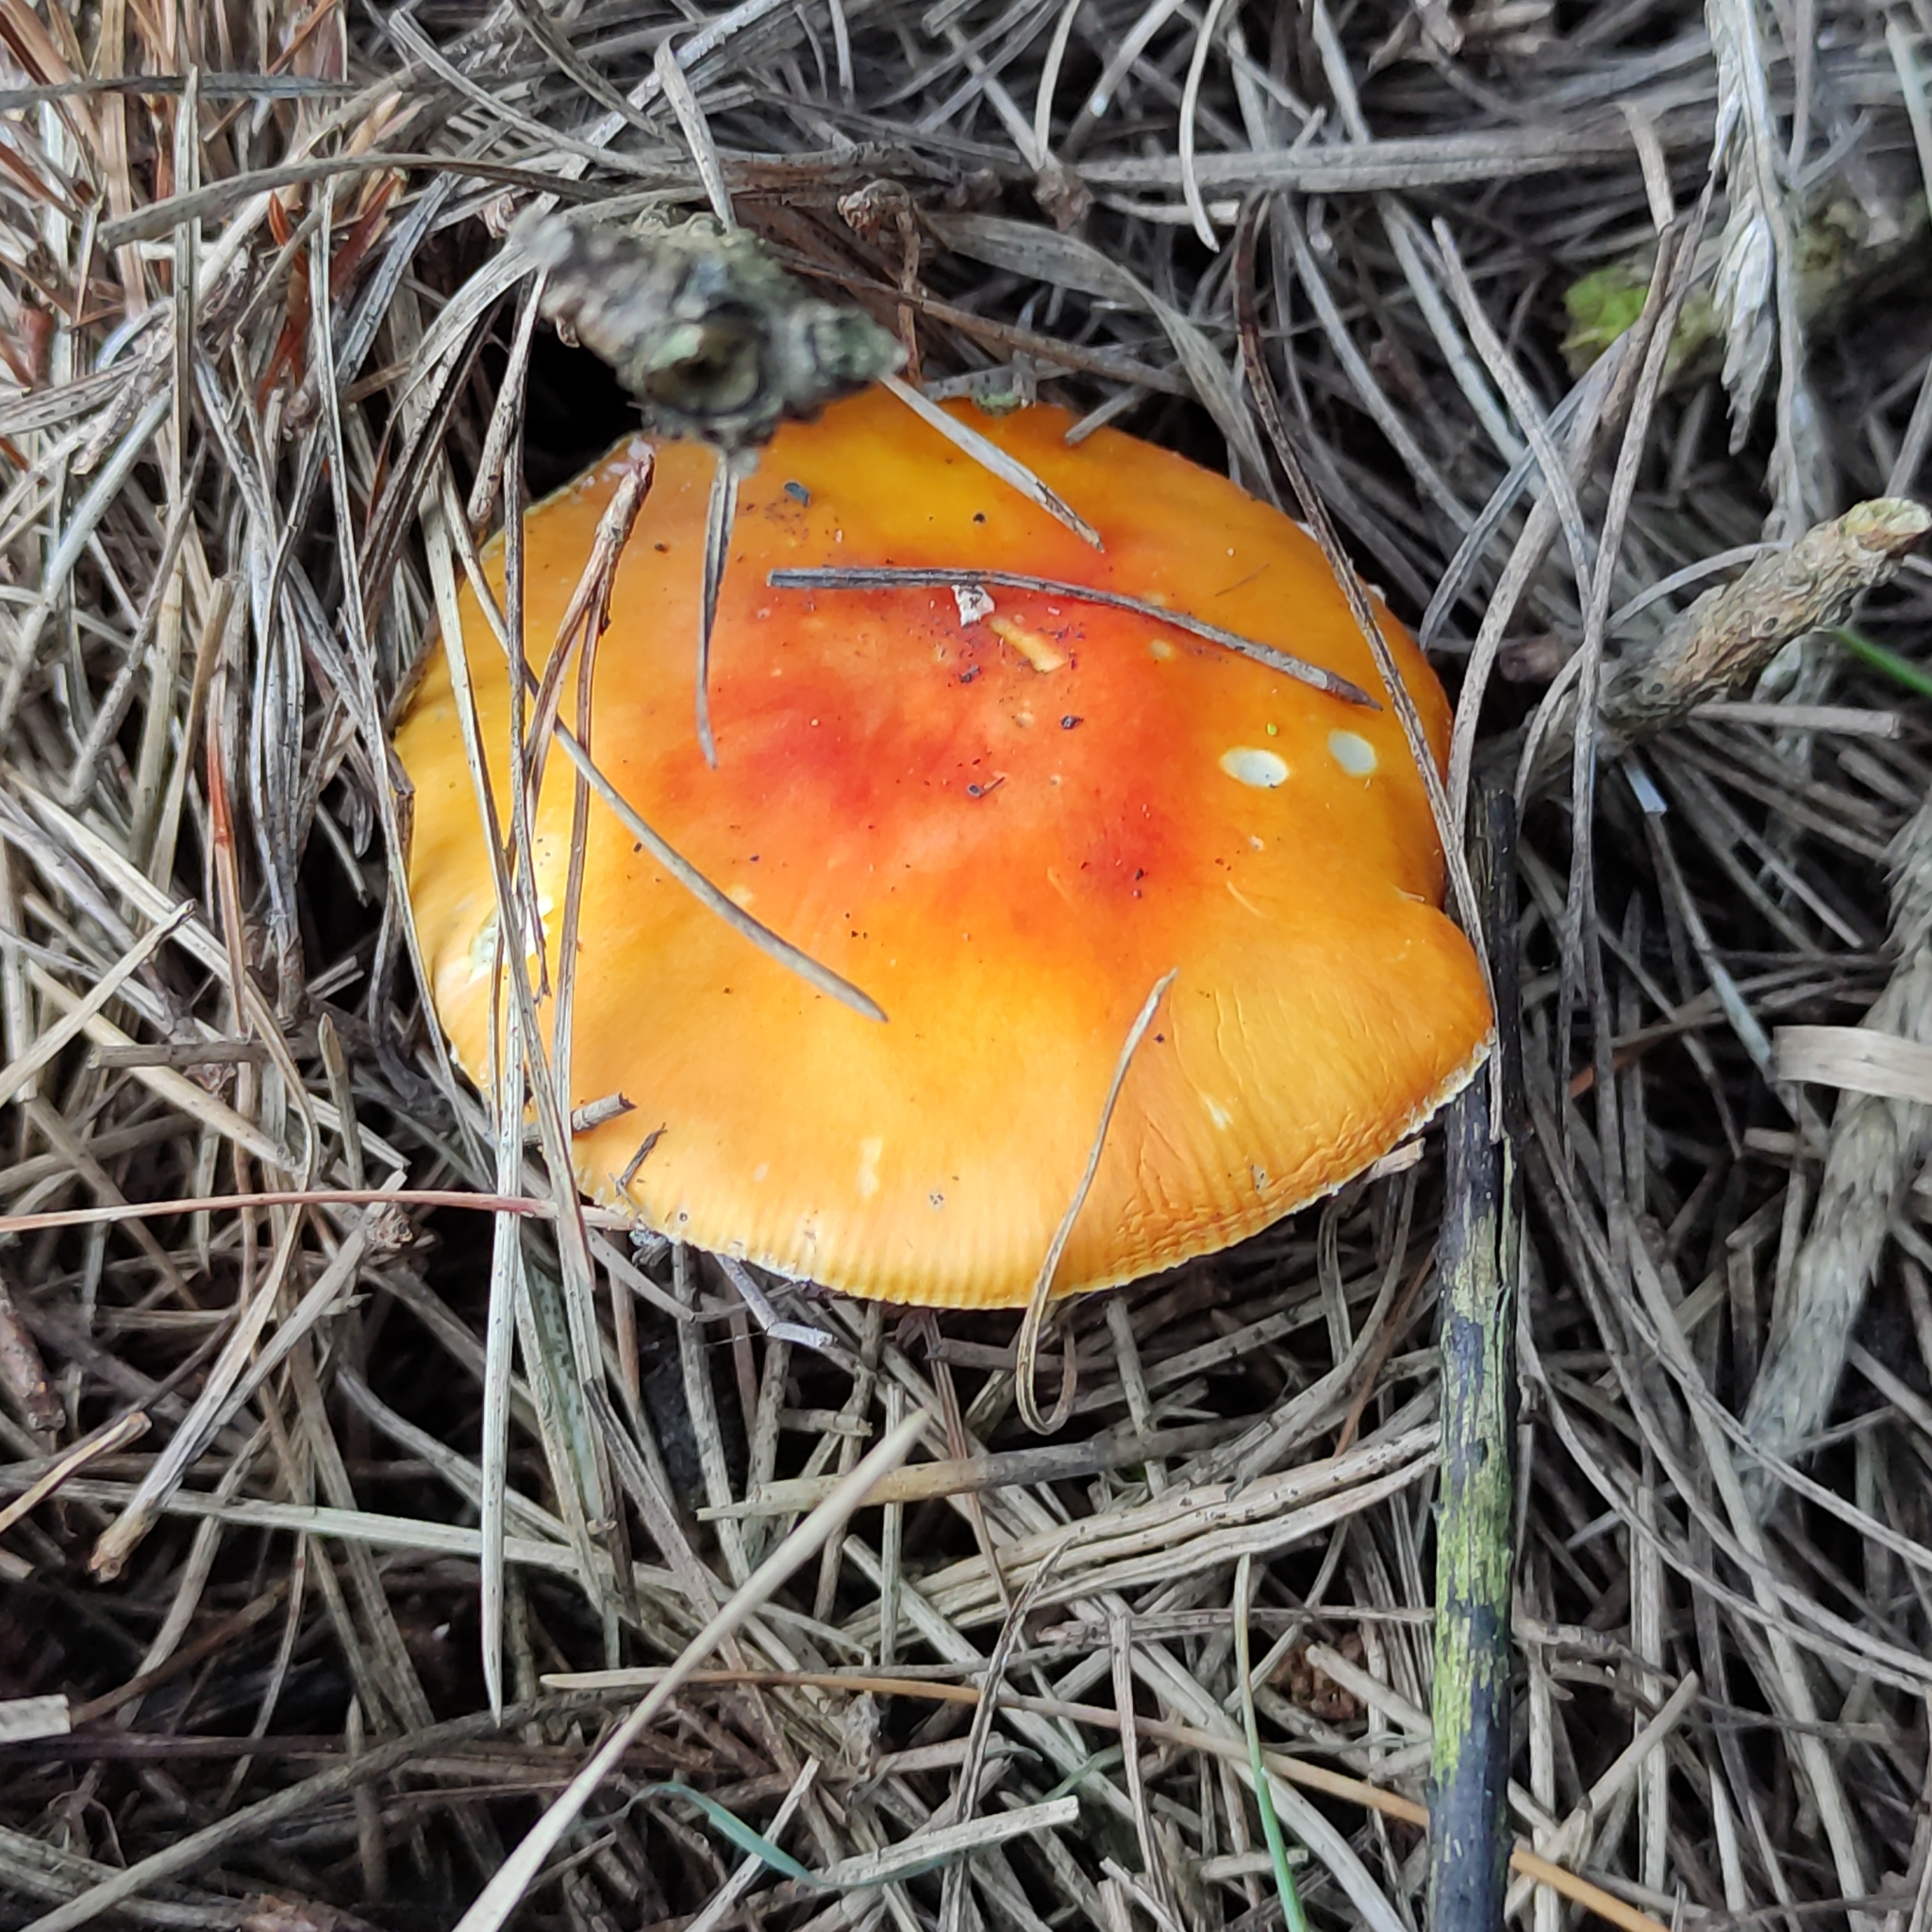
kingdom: Fungi
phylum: Basidiomycota
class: Agaricomycetes
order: Agaricales
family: Amanitaceae
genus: Amanita
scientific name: Amanita muscaria
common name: Fly agaric
